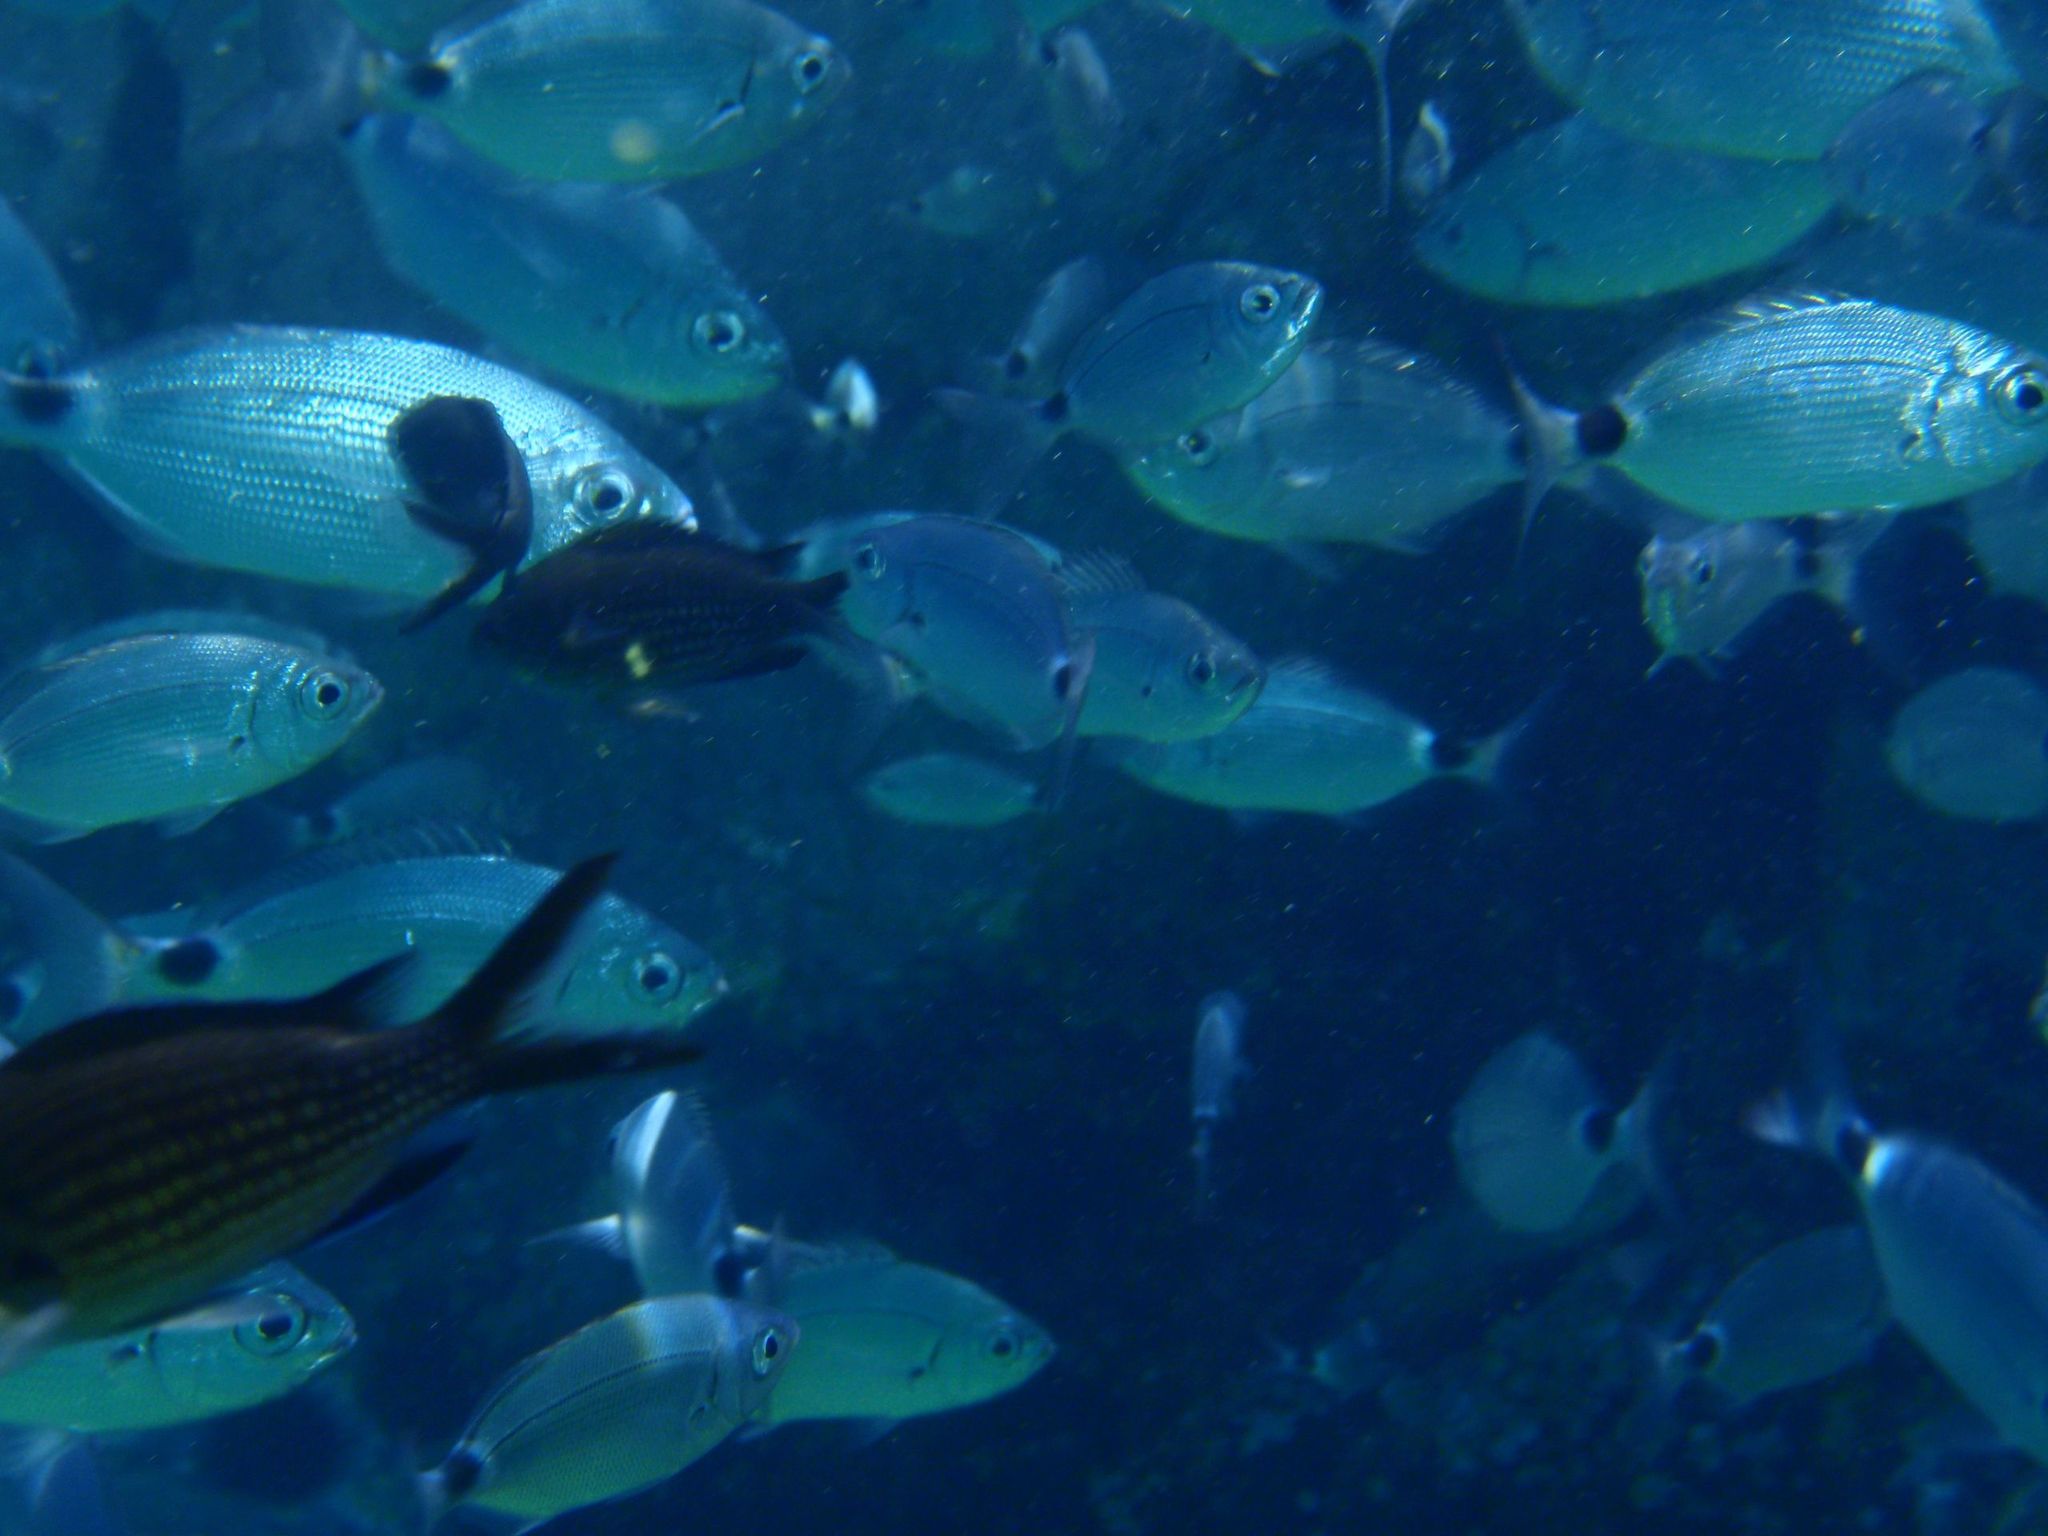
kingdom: Animalia
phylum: Chordata
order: Perciformes
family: Sparidae
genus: Oblada
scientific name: Oblada melanura
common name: Saddled seabream
